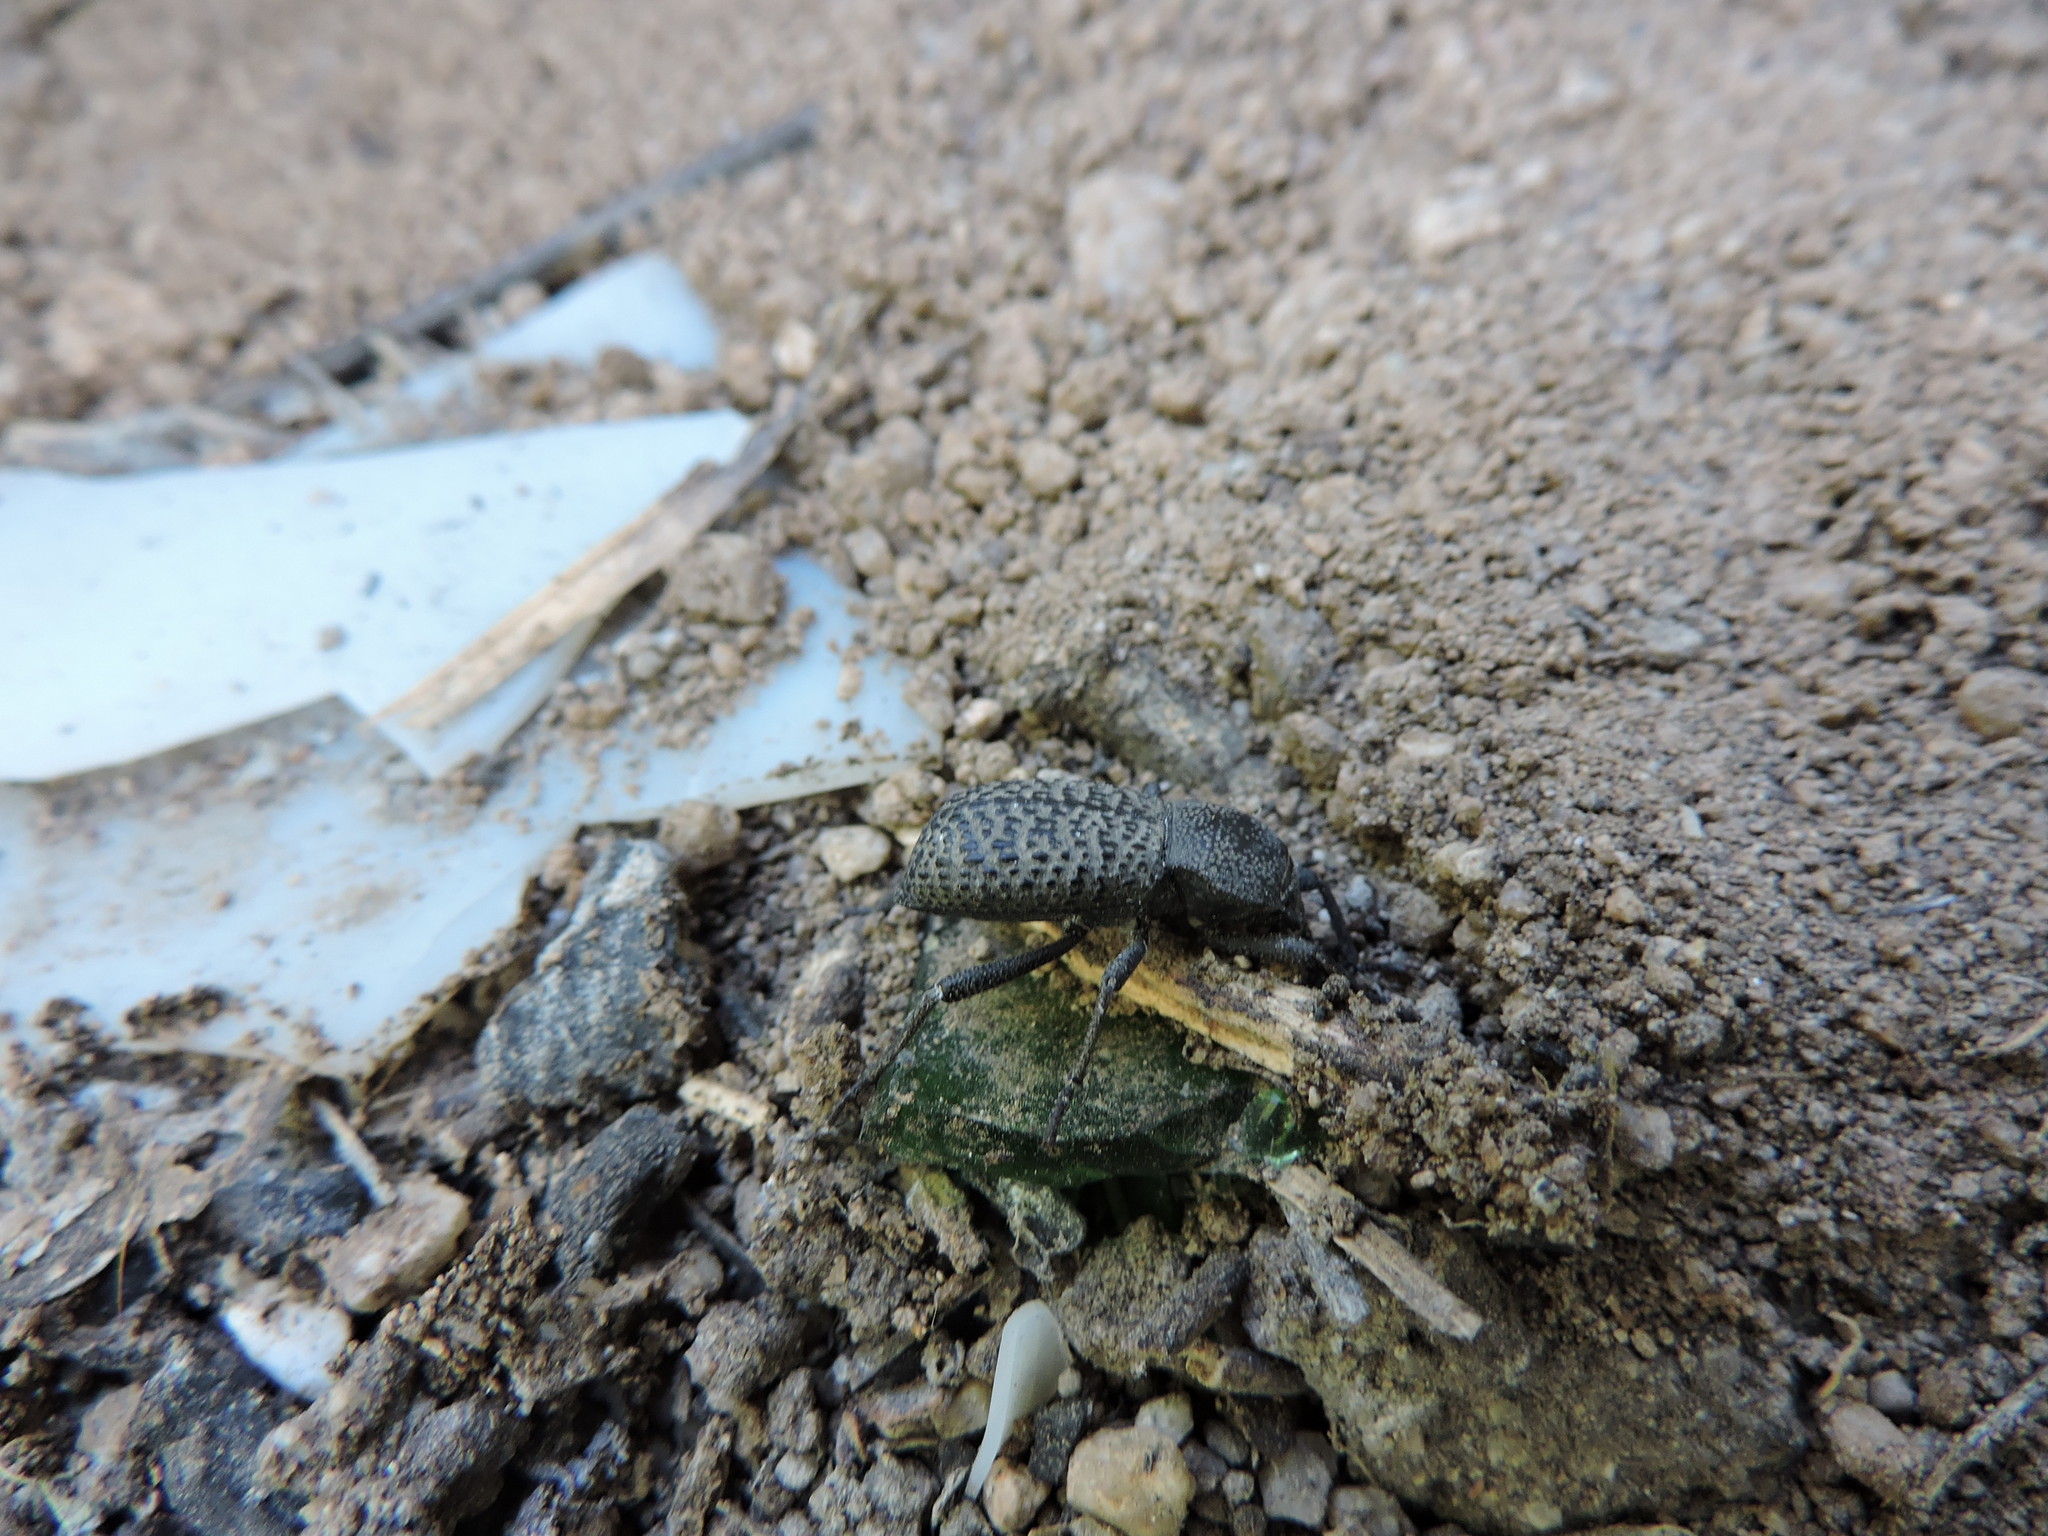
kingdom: Animalia
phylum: Arthropoda
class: Insecta
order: Coleoptera
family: Tenebrionidae
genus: Cryptoglossa
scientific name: Cryptoglossa variolosa
